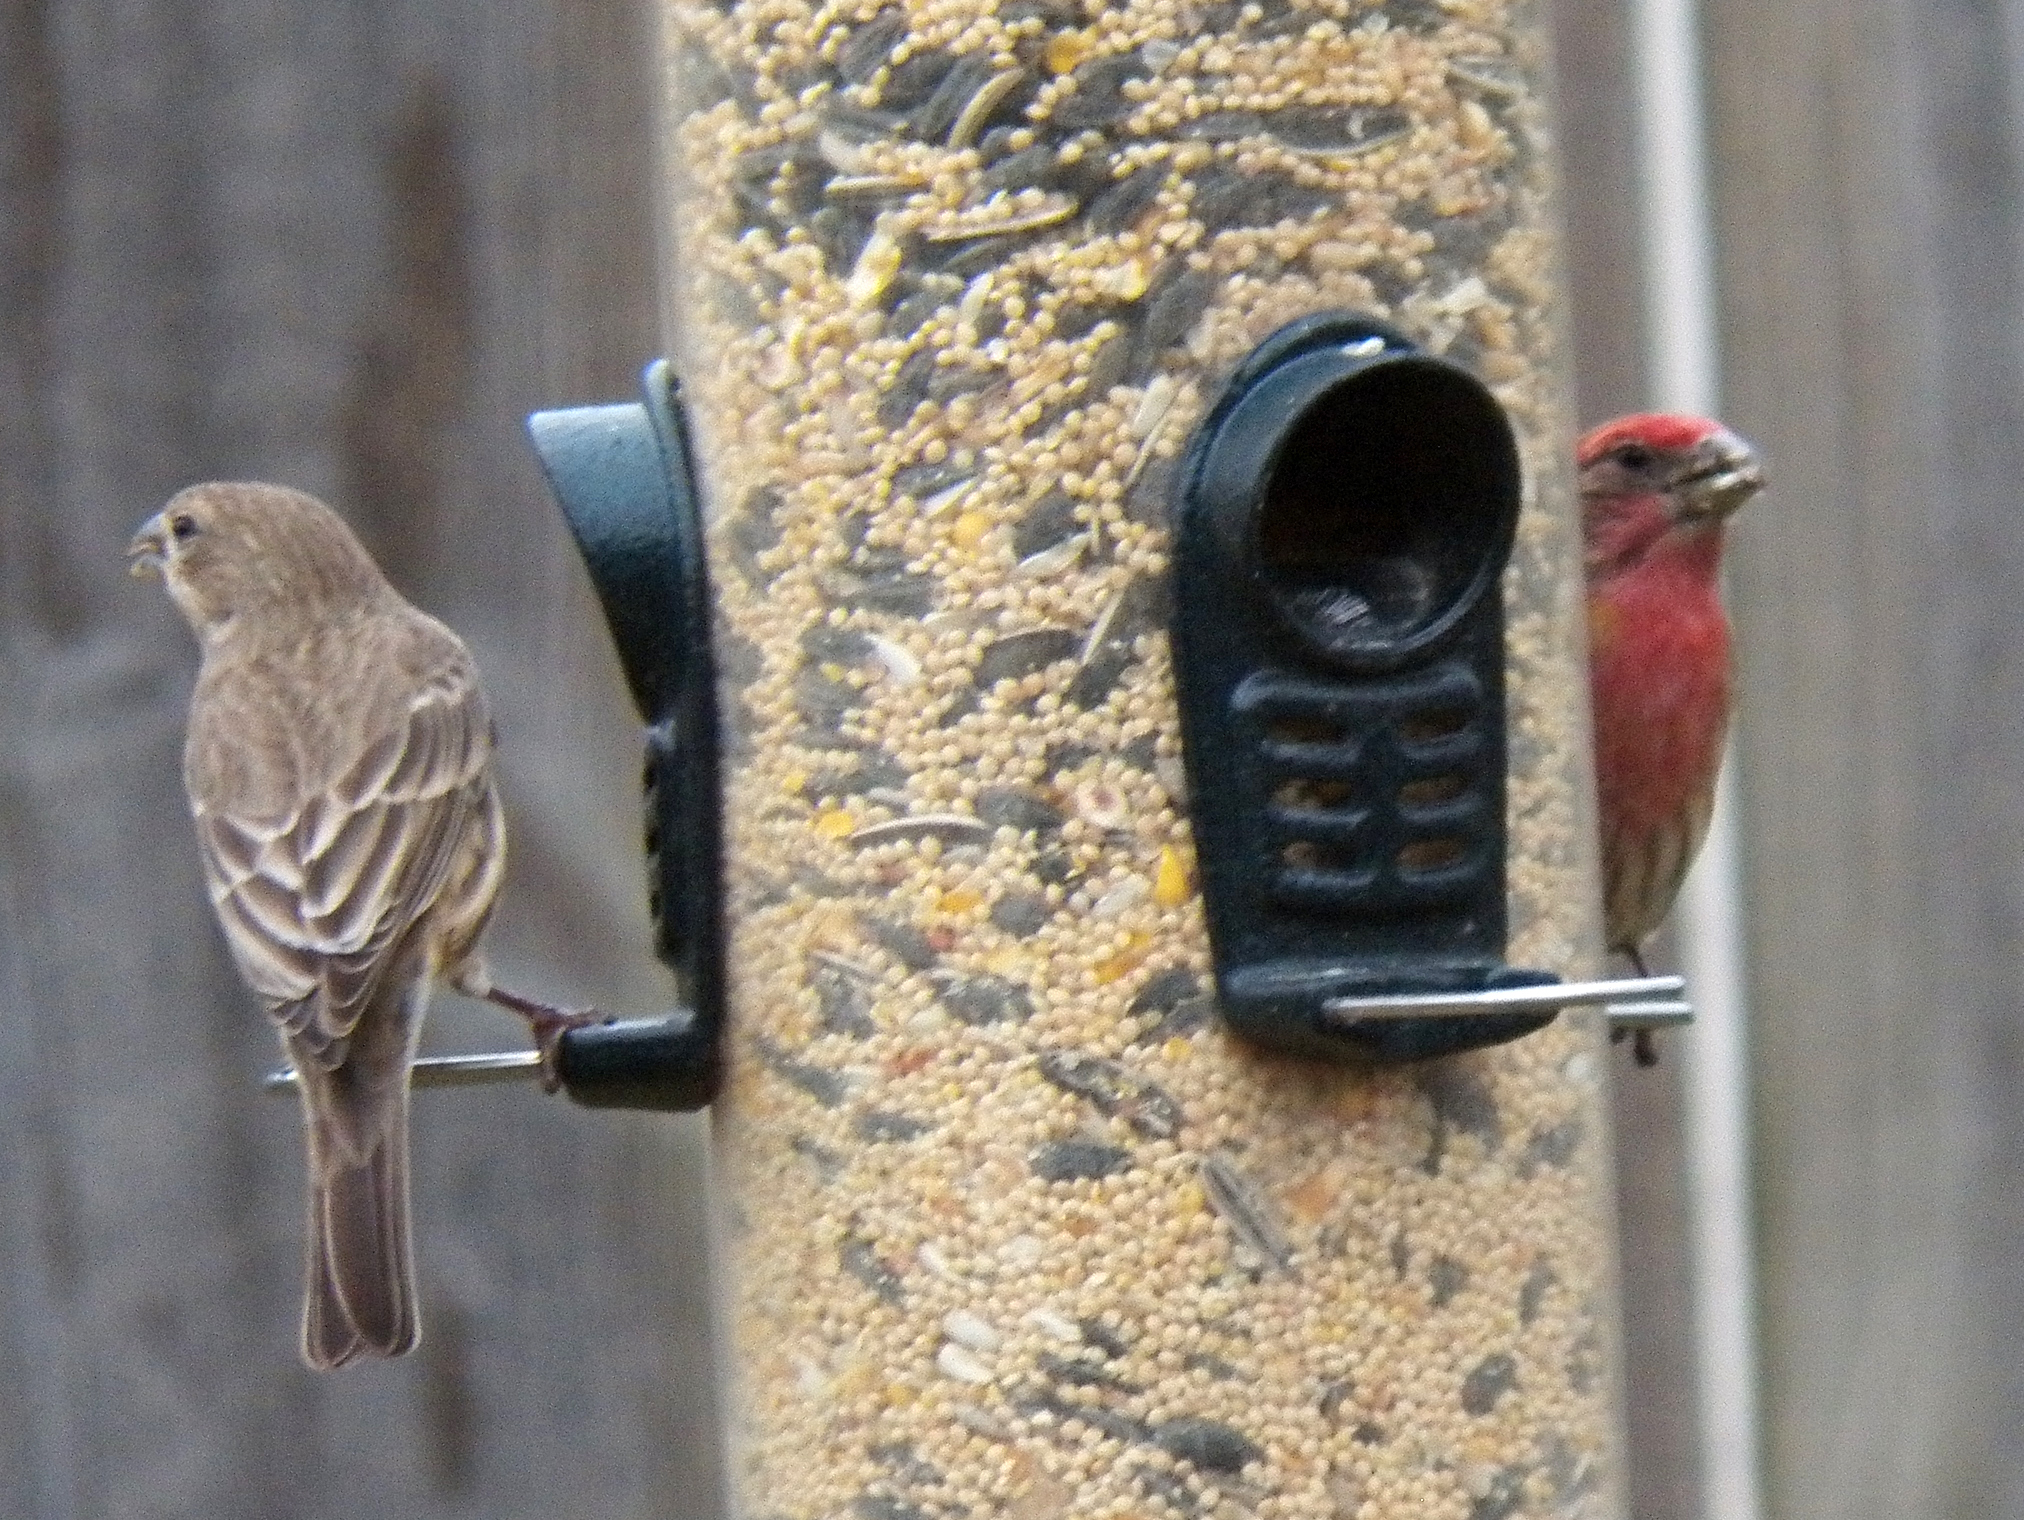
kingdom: Animalia
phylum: Chordata
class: Aves
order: Passeriformes
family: Fringillidae
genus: Haemorhous
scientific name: Haemorhous mexicanus
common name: House finch
